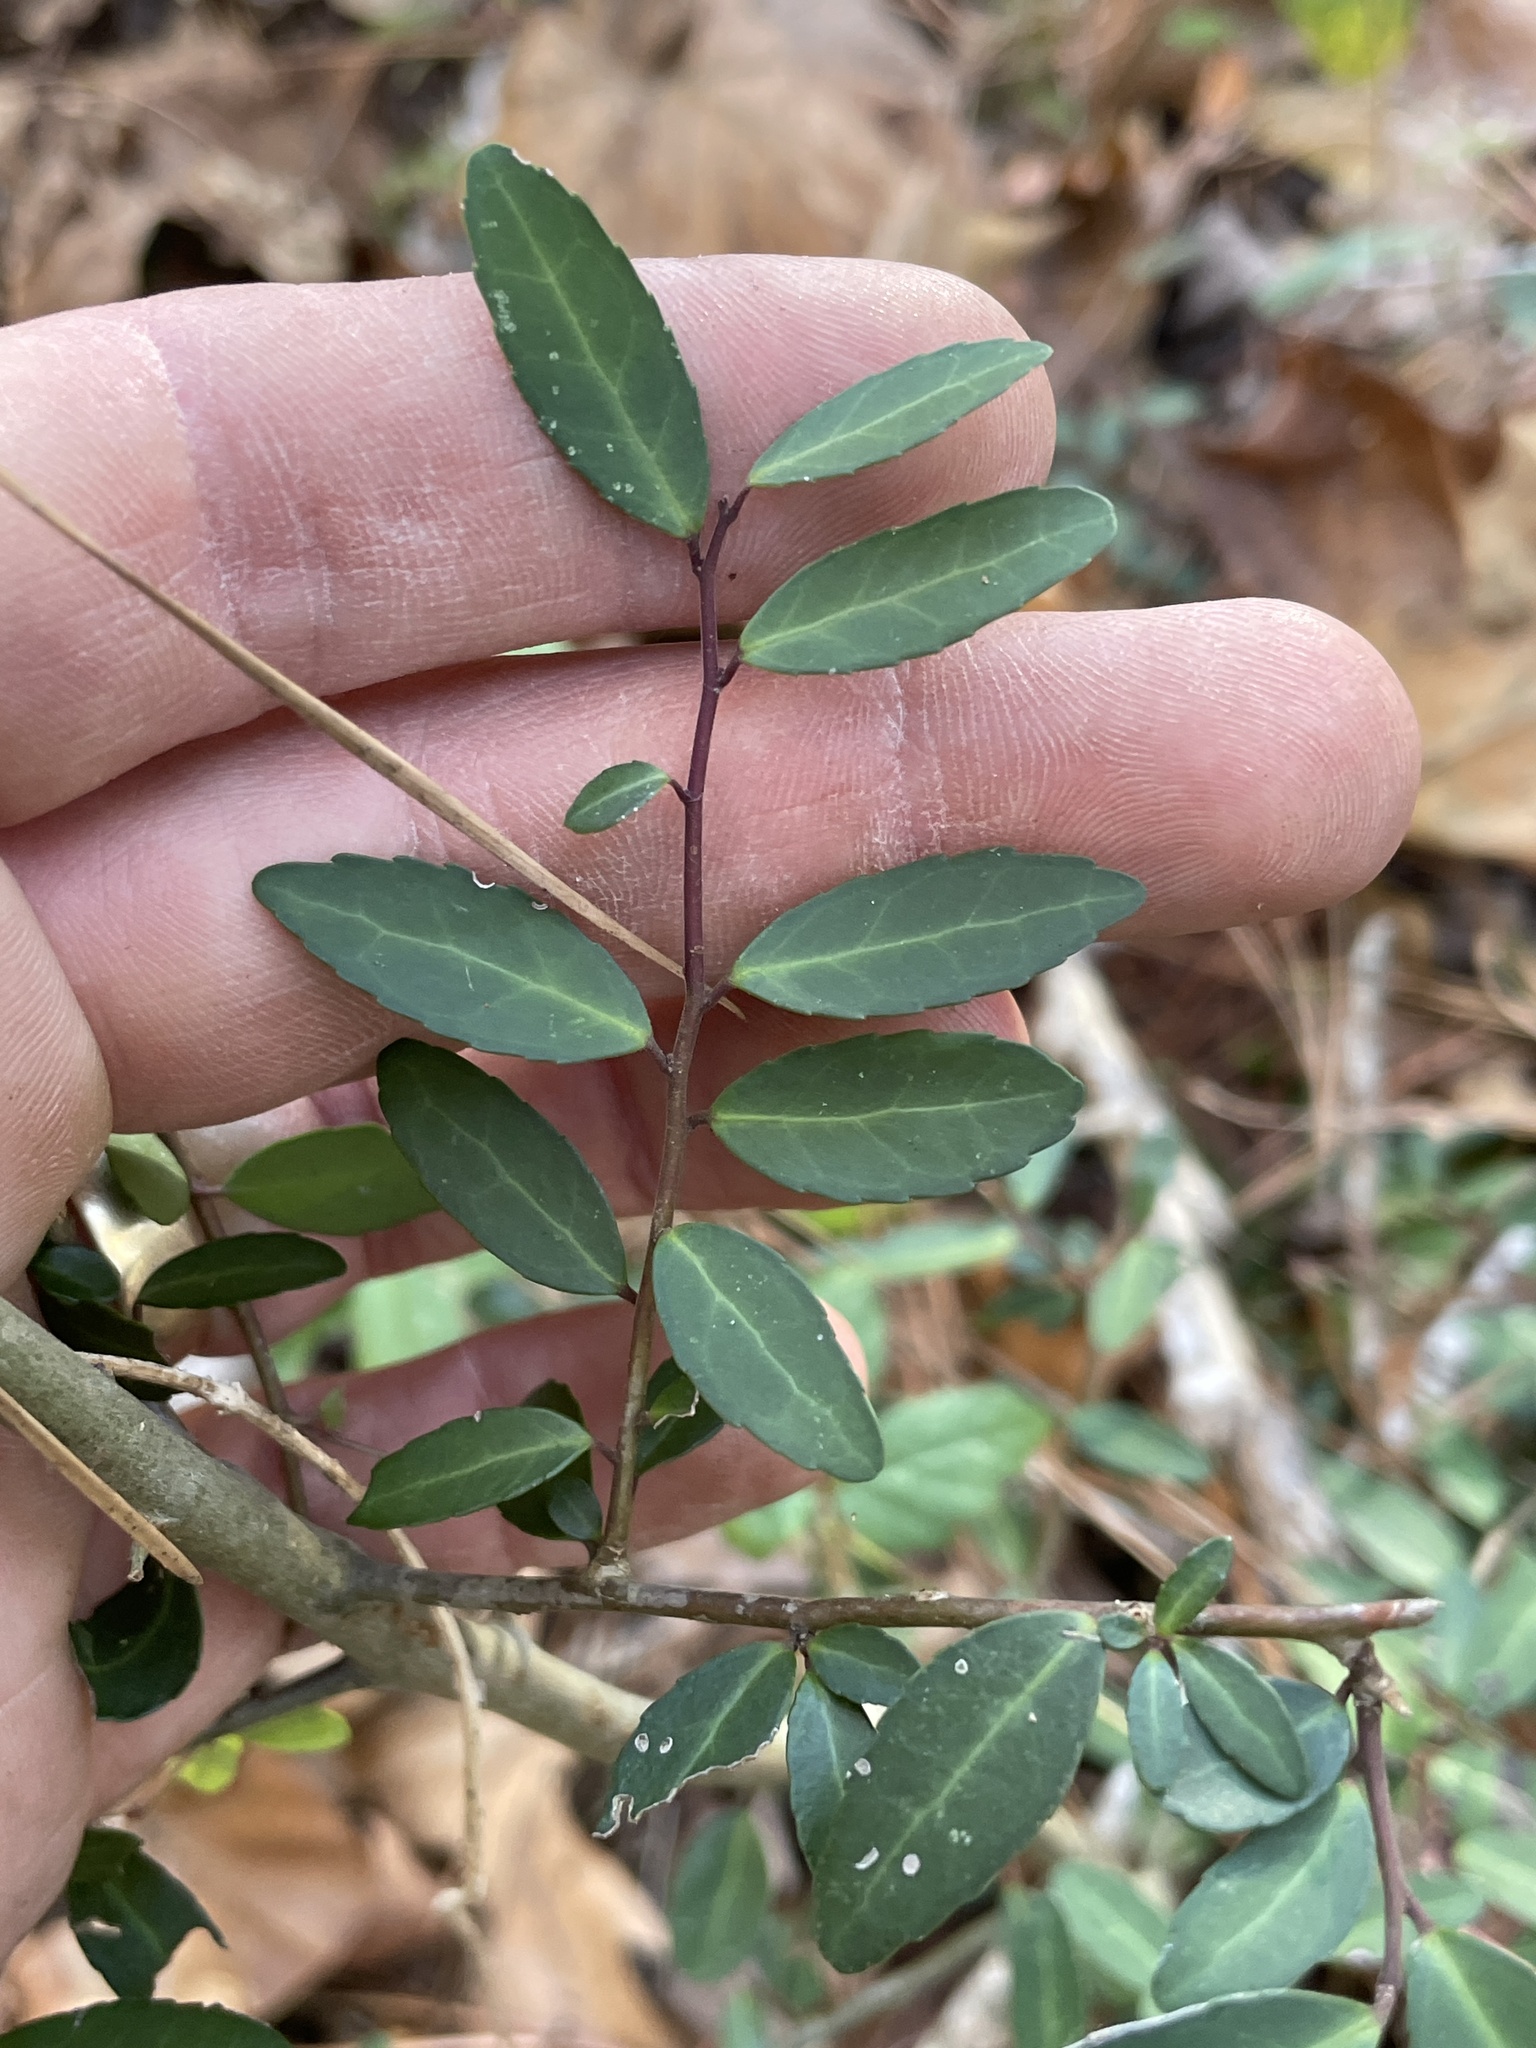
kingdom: Plantae
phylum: Tracheophyta
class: Magnoliopsida
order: Aquifoliales
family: Aquifoliaceae
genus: Ilex
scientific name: Ilex vomitoria
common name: Yaupon holly
